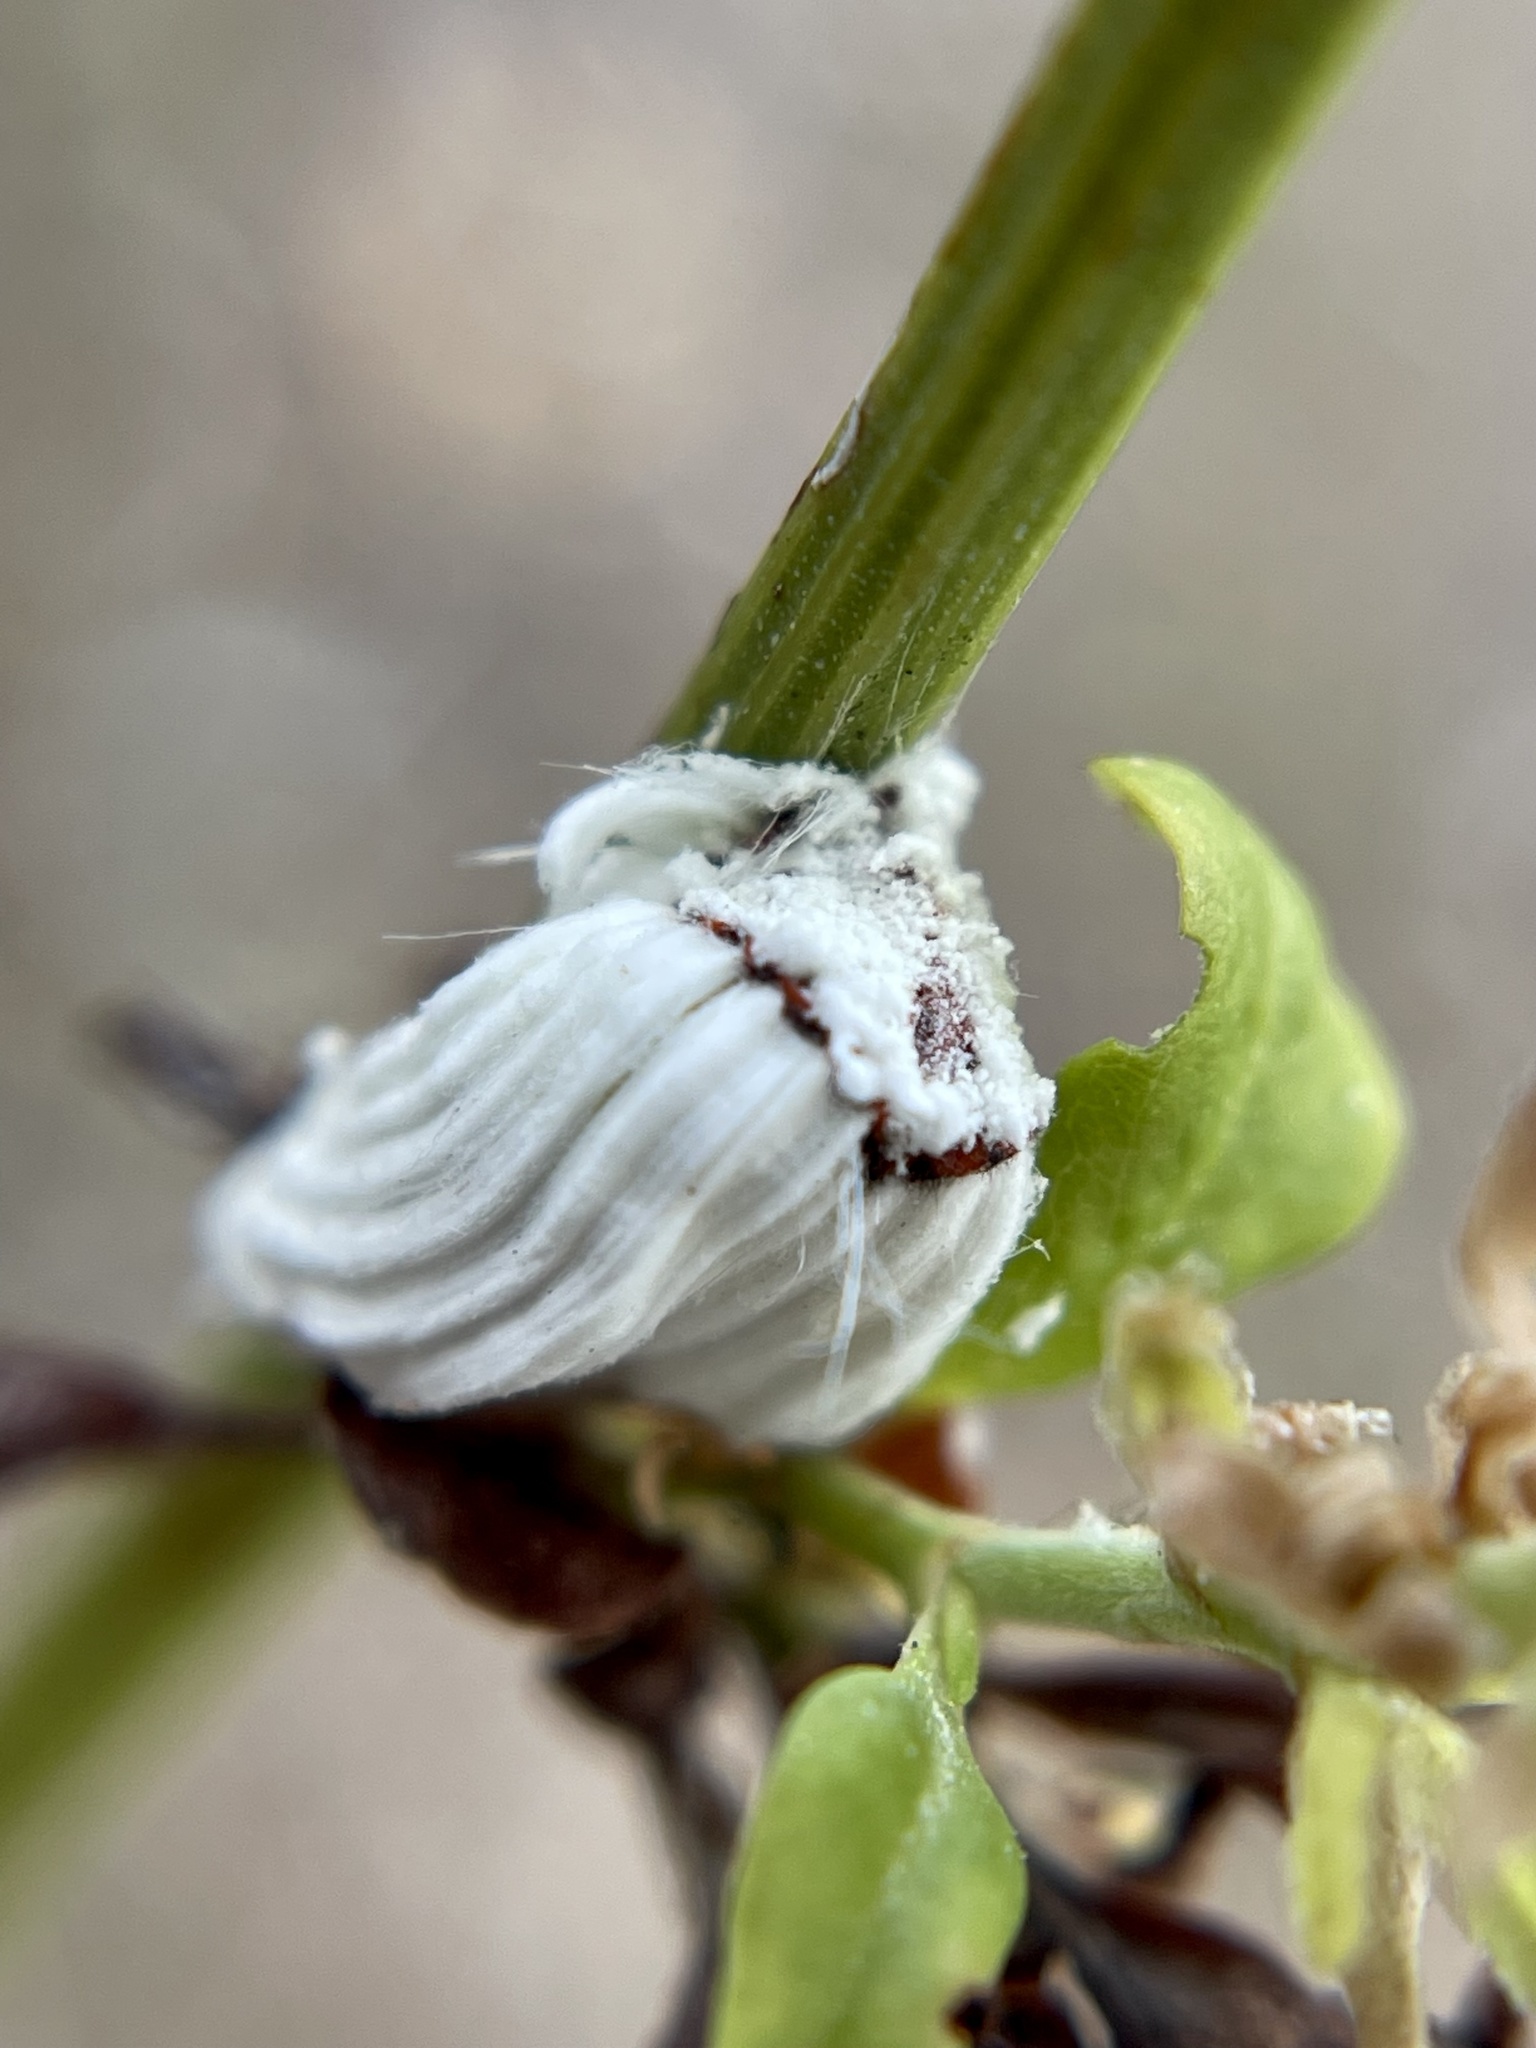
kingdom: Animalia
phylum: Arthropoda
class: Insecta
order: Hemiptera
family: Margarodidae
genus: Icerya
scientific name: Icerya purchasi
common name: Cottony cushion scale
